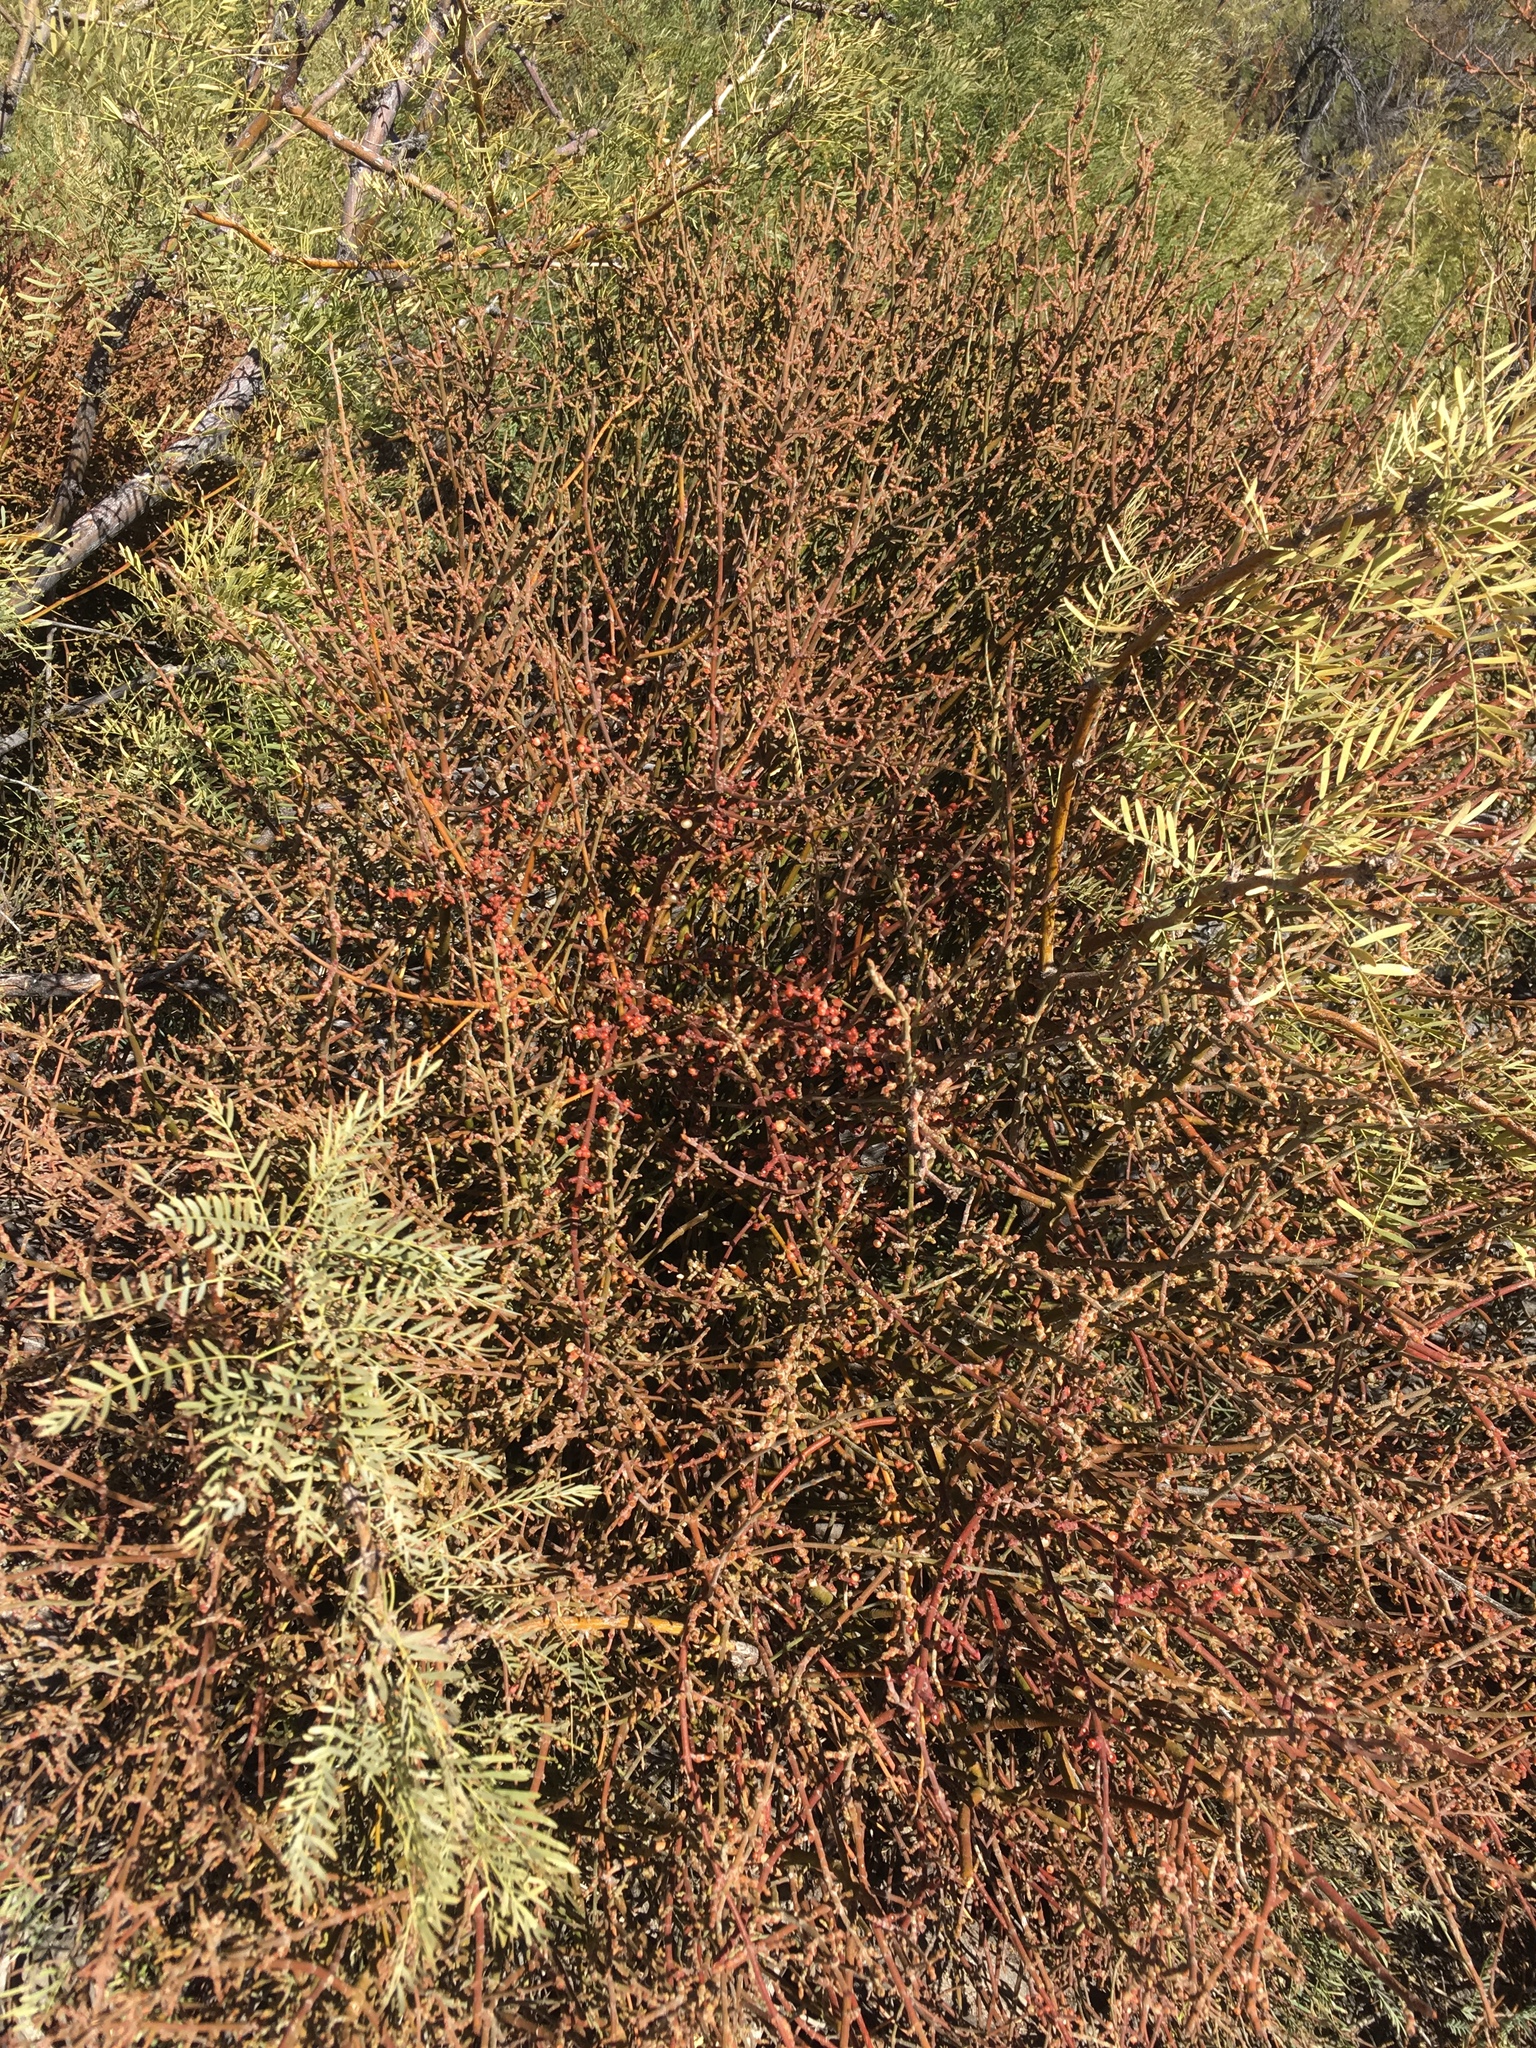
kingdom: Plantae
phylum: Tracheophyta
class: Magnoliopsida
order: Santalales
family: Viscaceae
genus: Phoradendron
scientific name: Phoradendron californicum
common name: Acacia mistletoe
